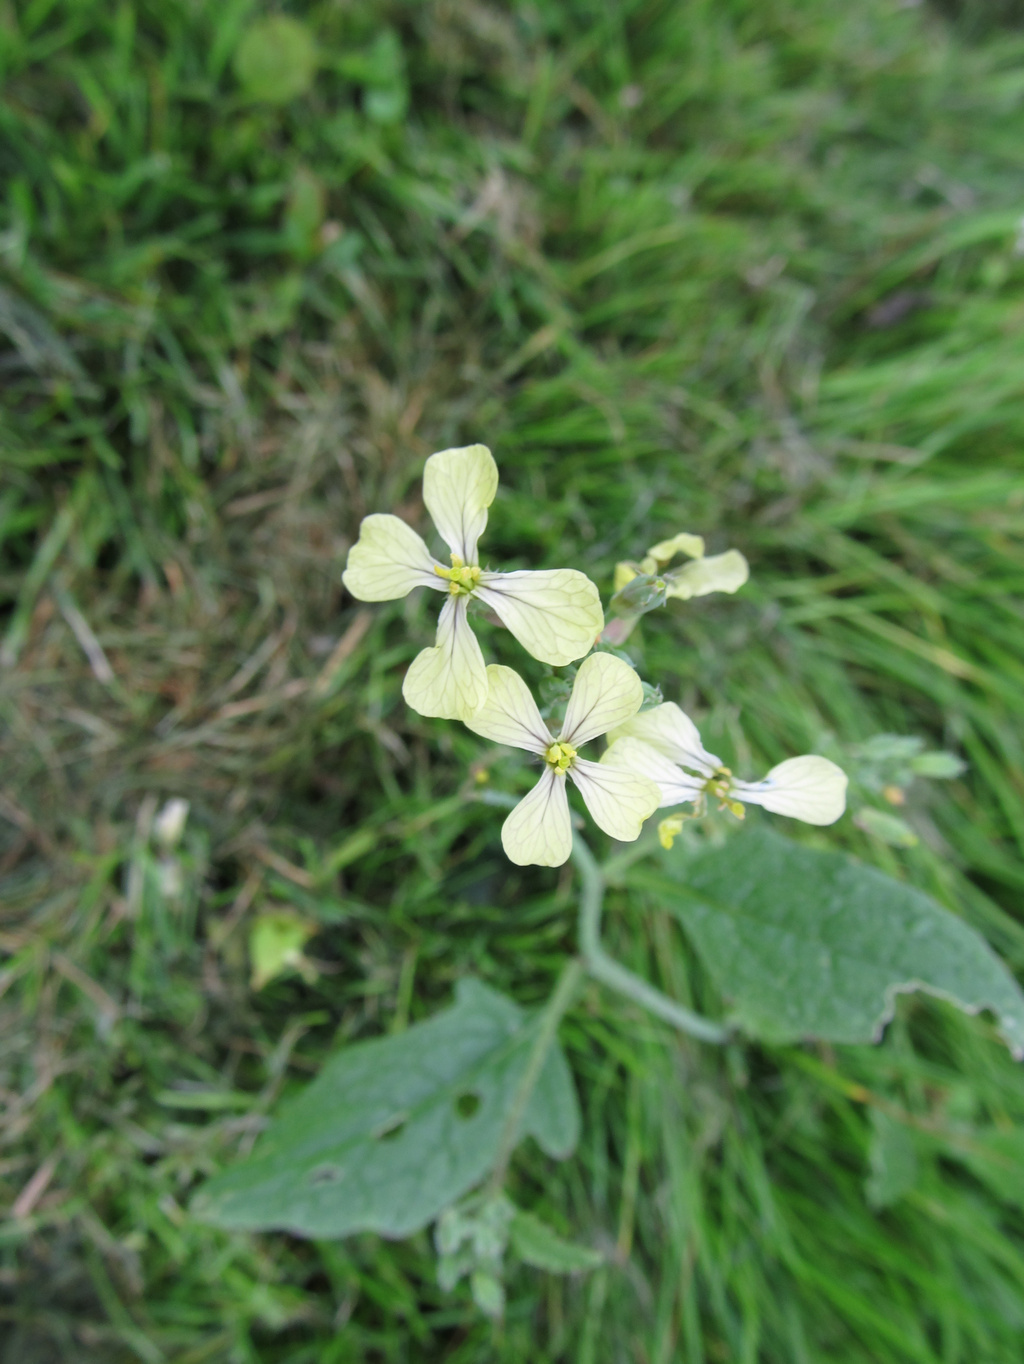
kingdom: Plantae
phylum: Tracheophyta
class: Magnoliopsida
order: Brassicales
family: Brassicaceae
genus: Raphanus
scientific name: Raphanus raphanistrum
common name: Wild radish
